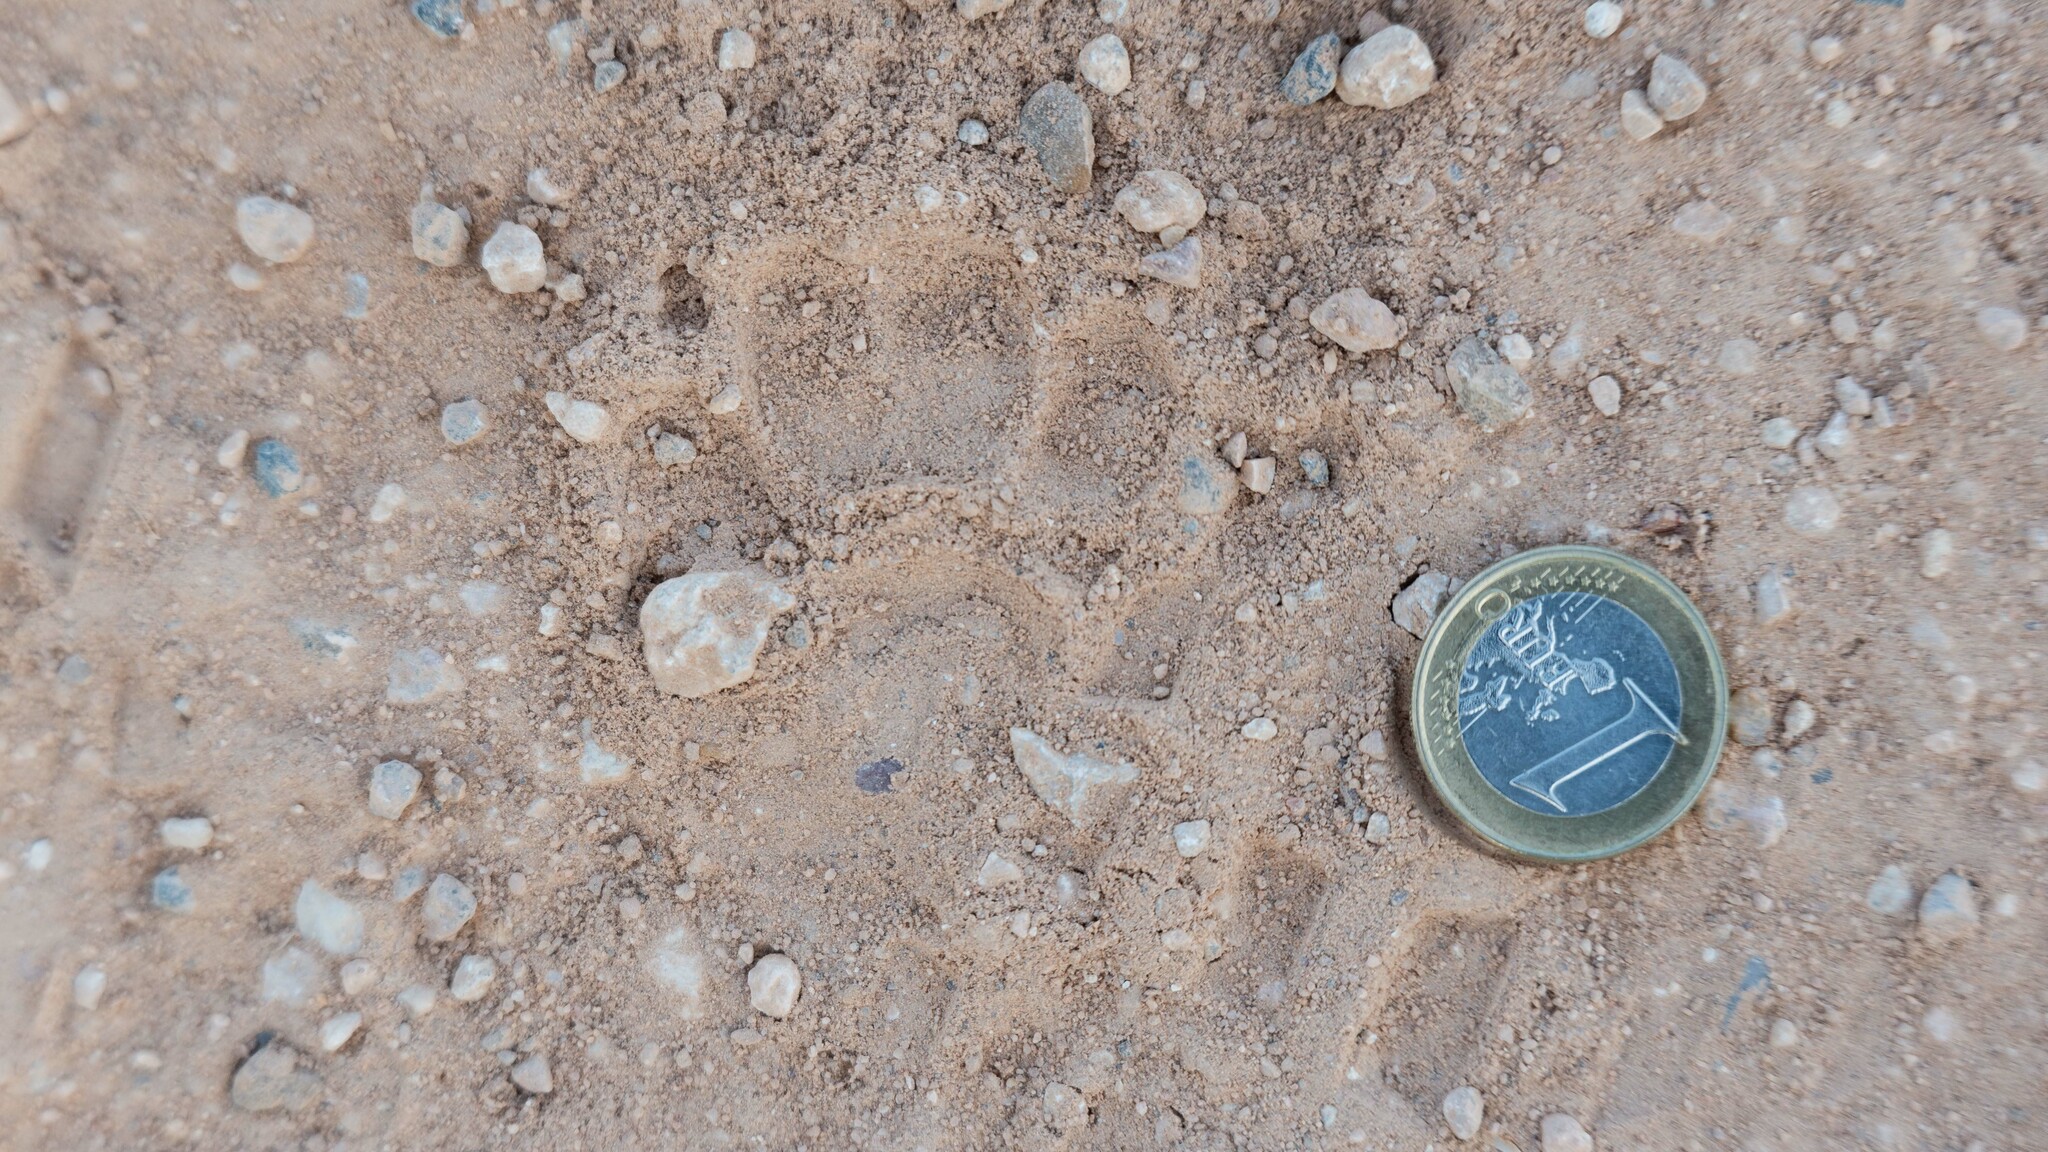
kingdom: Animalia
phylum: Chordata
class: Mammalia
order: Carnivora
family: Mustelidae
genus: Meles
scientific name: Meles meles
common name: Eurasian badger
